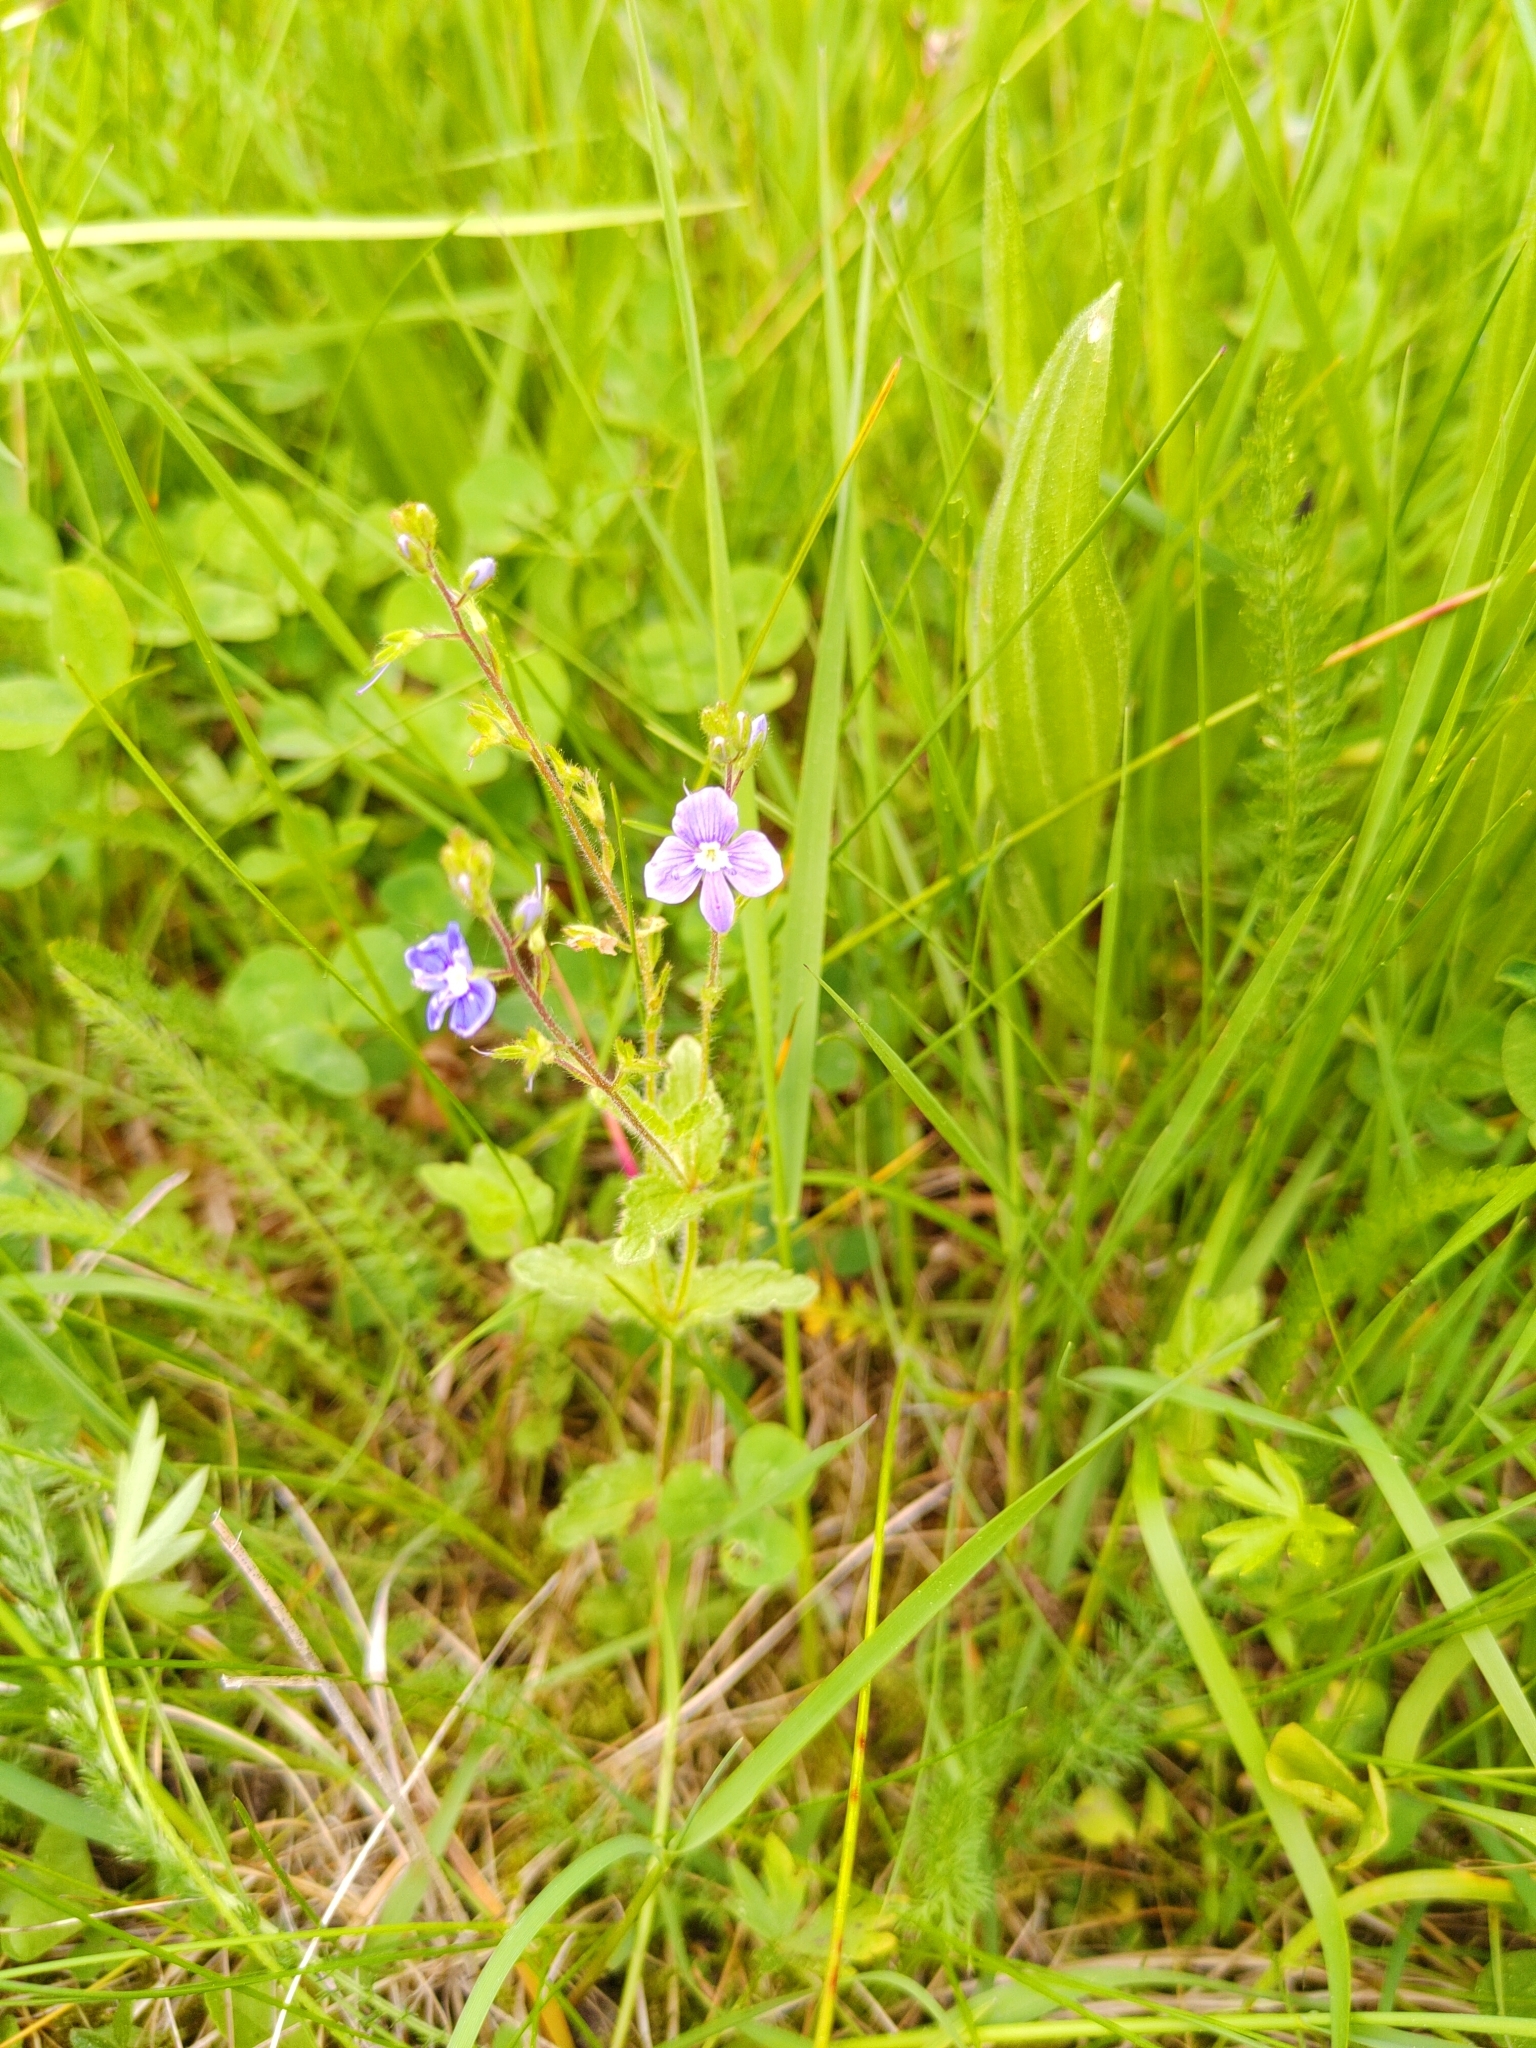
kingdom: Plantae
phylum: Tracheophyta
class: Magnoliopsida
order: Lamiales
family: Plantaginaceae
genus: Veronica
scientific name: Veronica chamaedrys
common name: Germander speedwell
